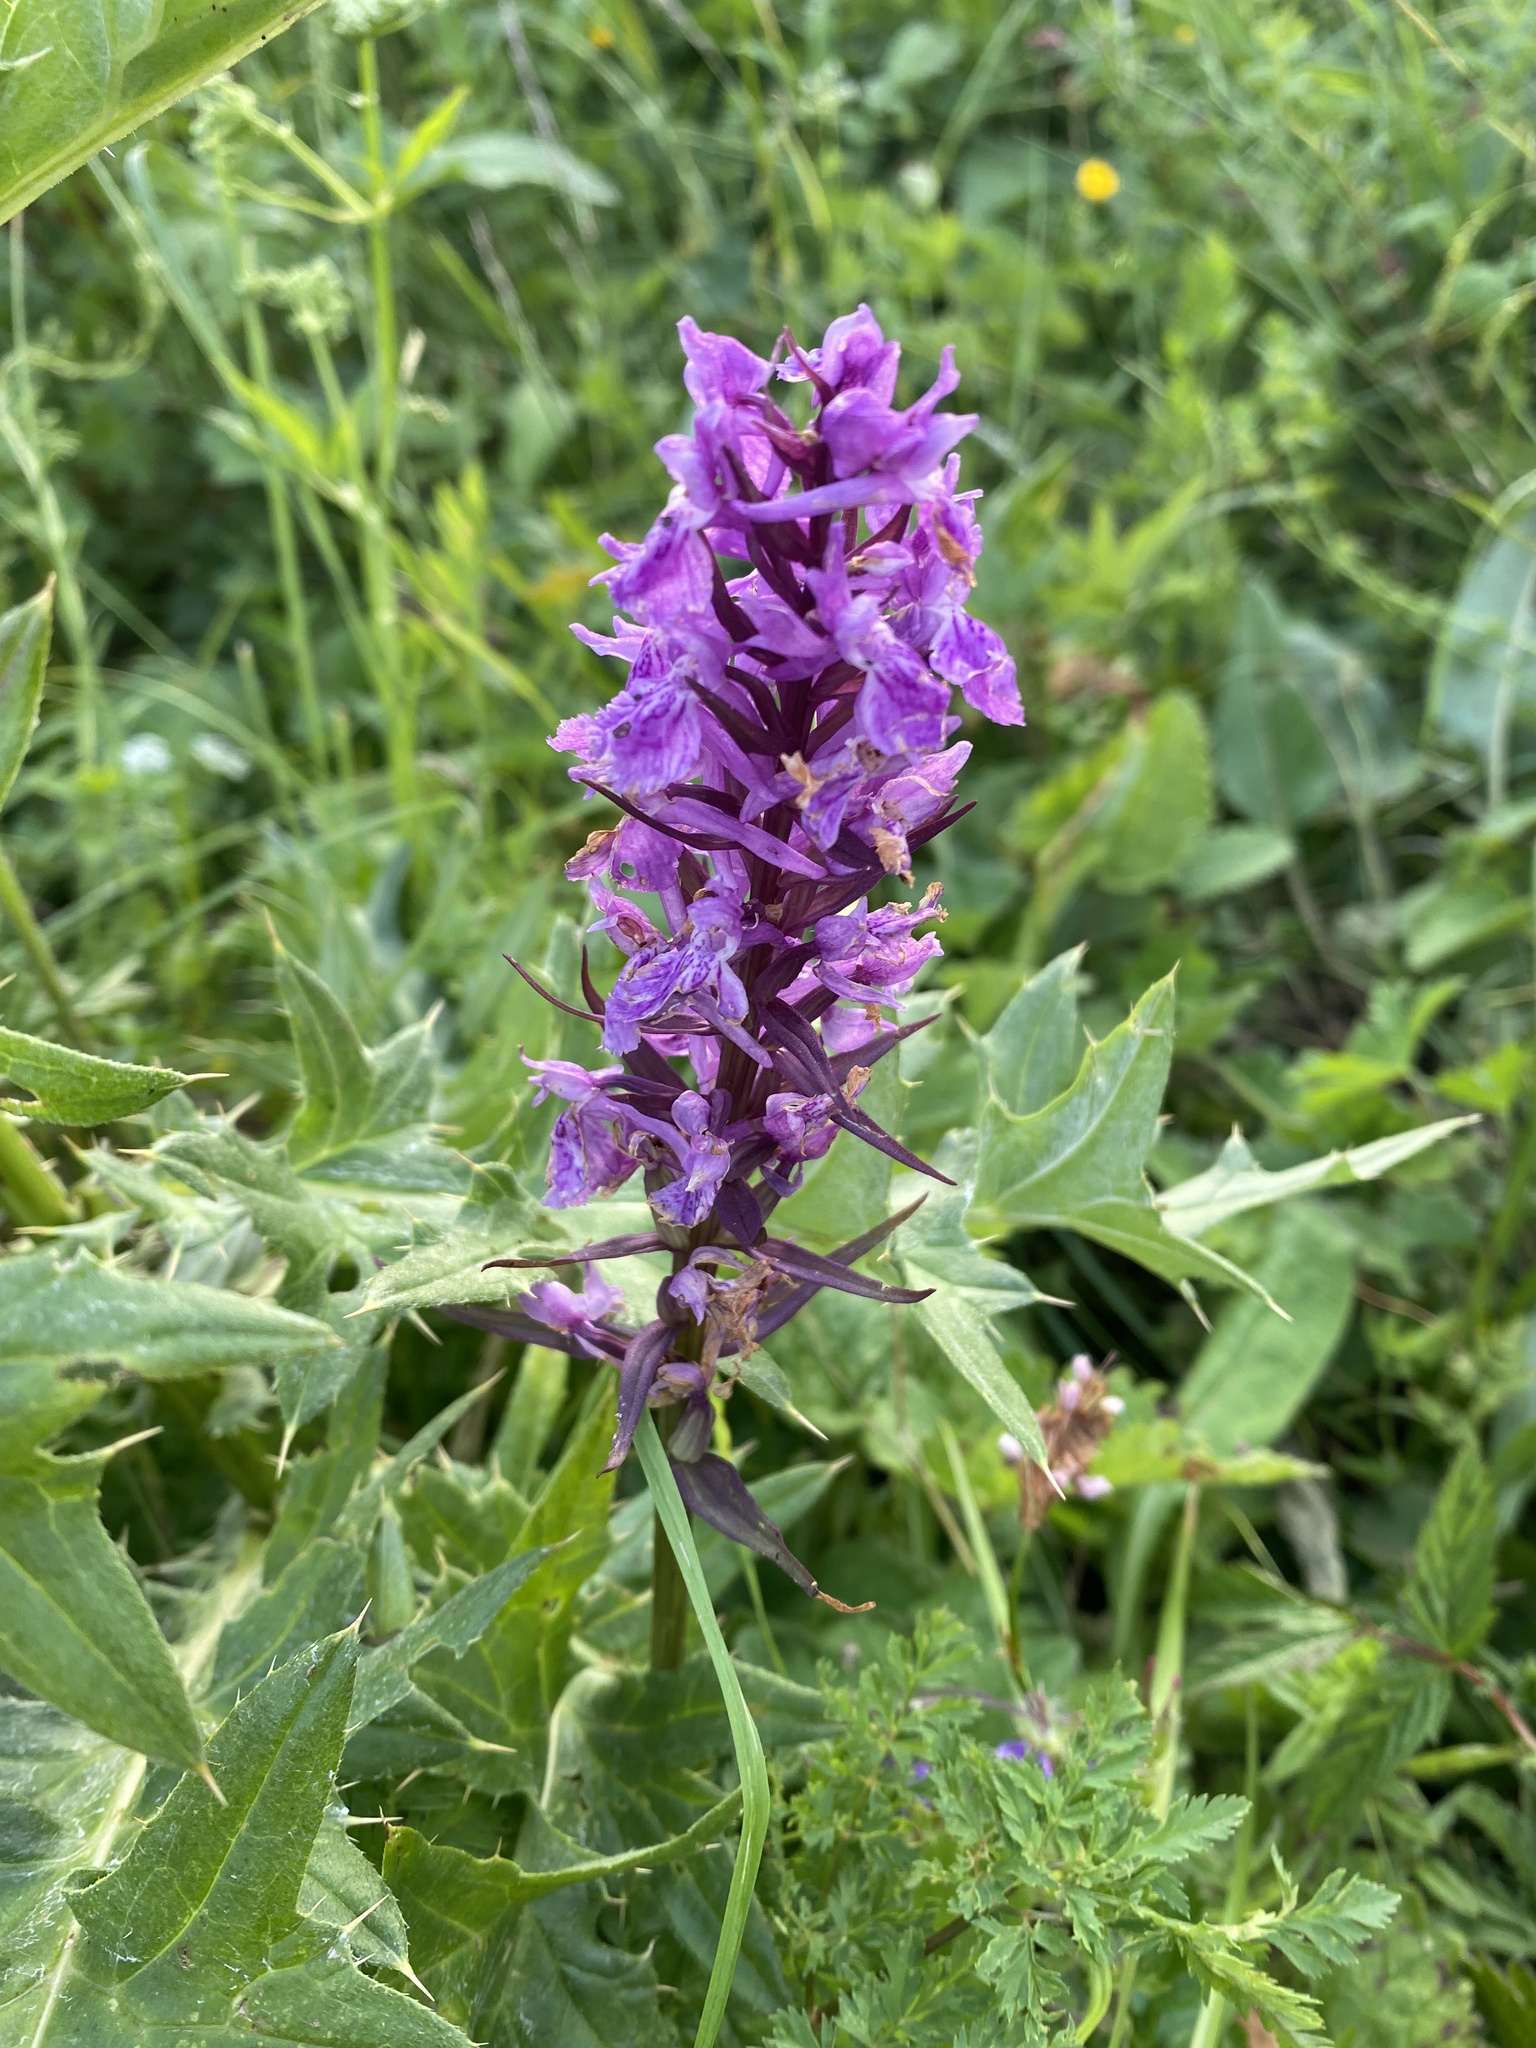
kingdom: Plantae
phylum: Tracheophyta
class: Liliopsida
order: Asparagales
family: Orchidaceae
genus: Dactylorhiza
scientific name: Dactylorhiza euxina
